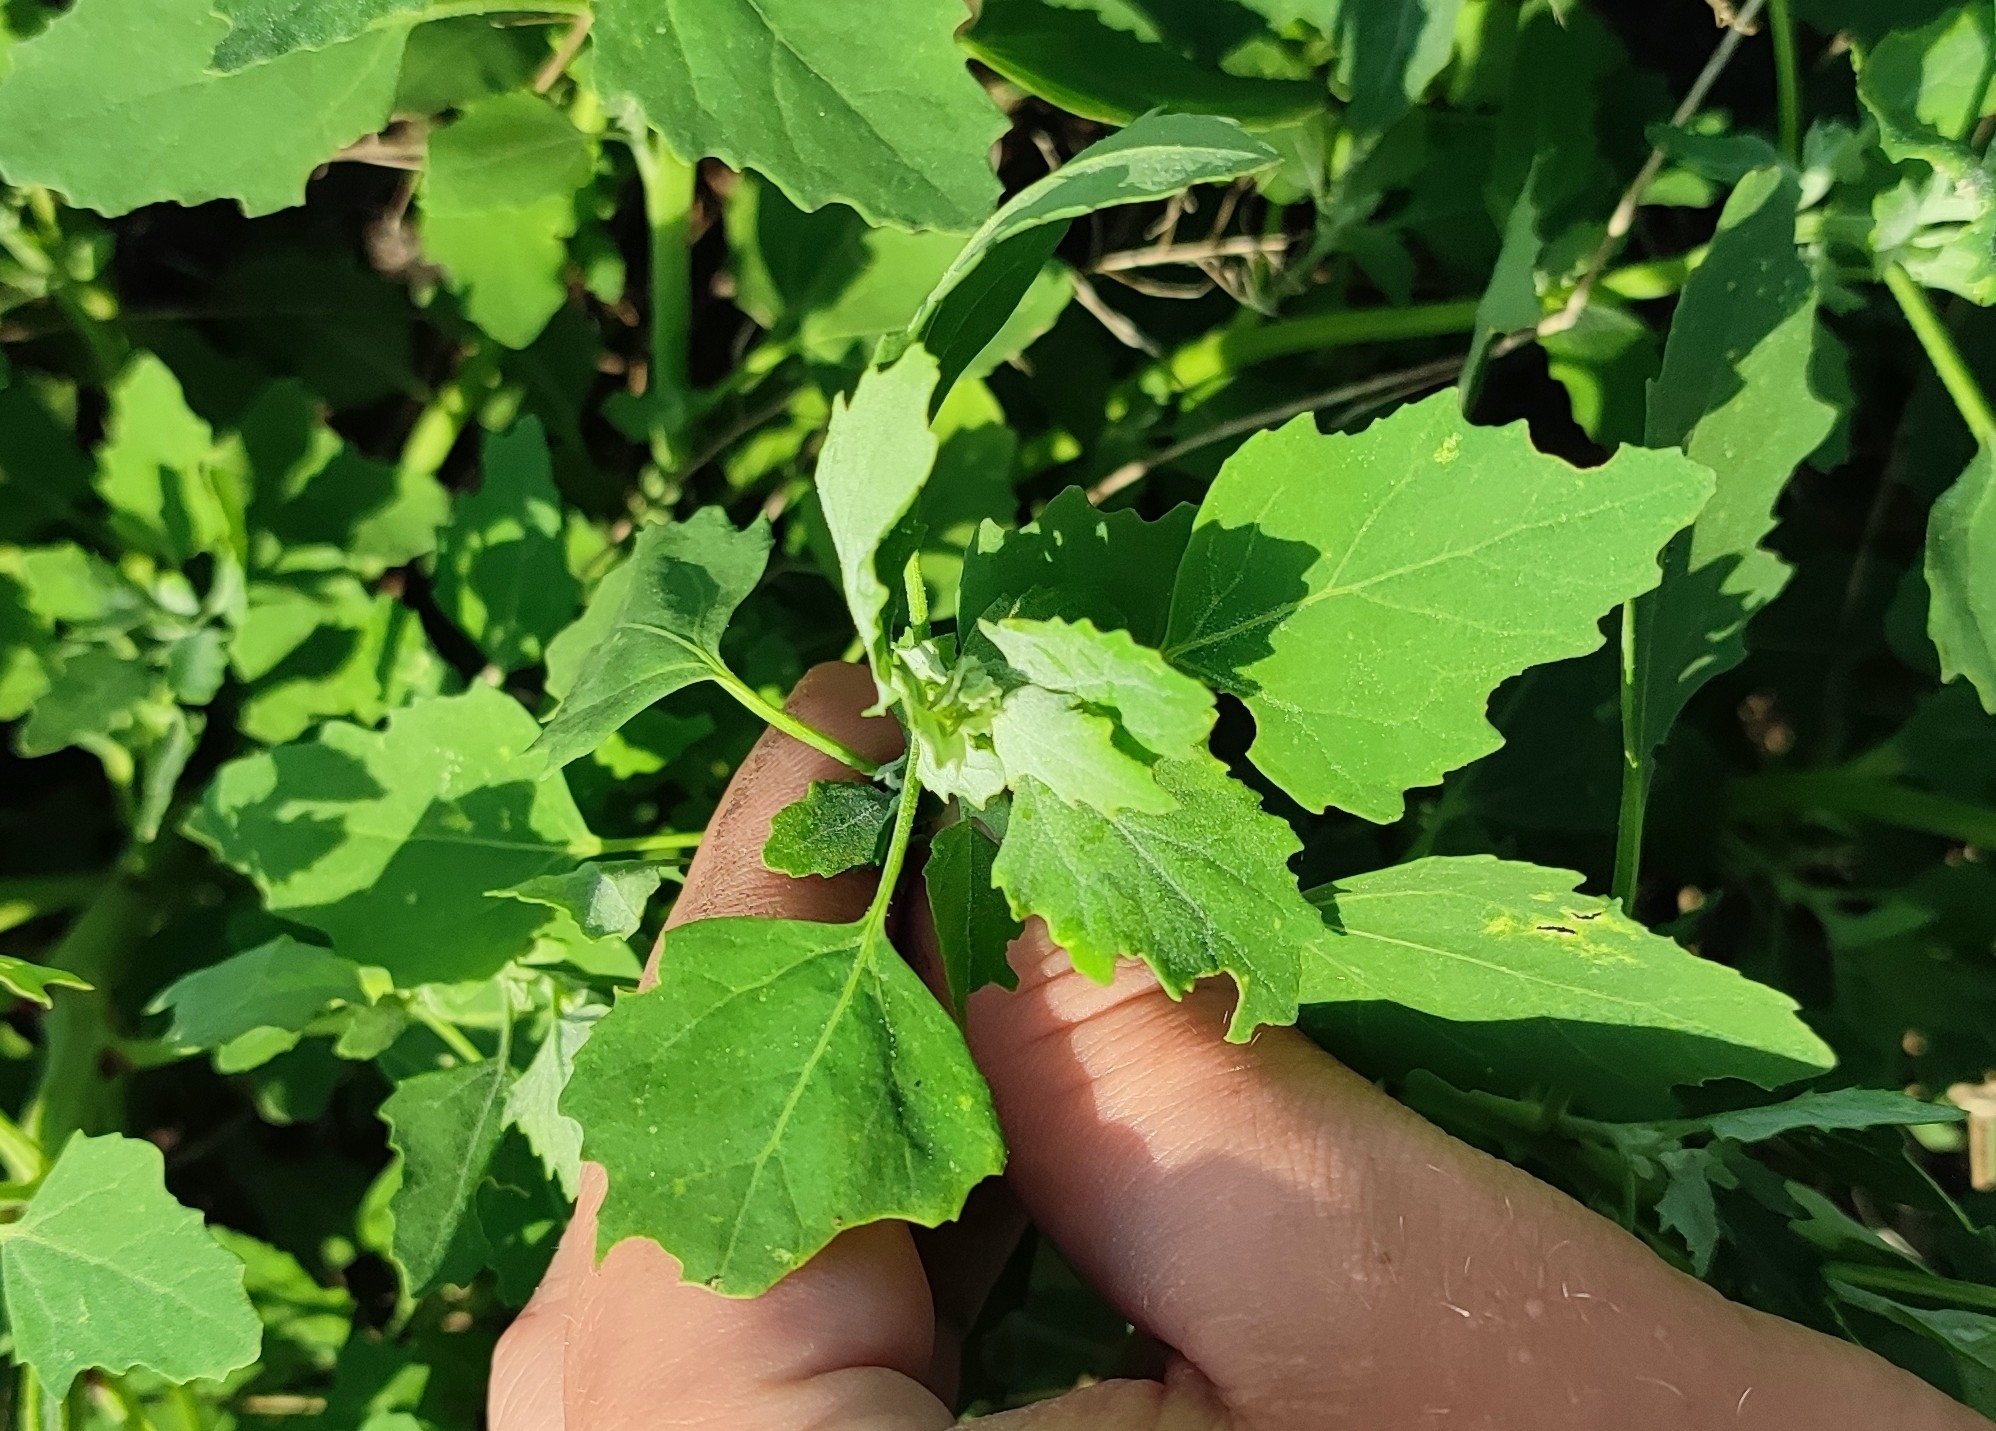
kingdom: Plantae
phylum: Tracheophyta
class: Magnoliopsida
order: Caryophyllales
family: Amaranthaceae
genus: Chenopodium
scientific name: Chenopodium album
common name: Fat-hen
